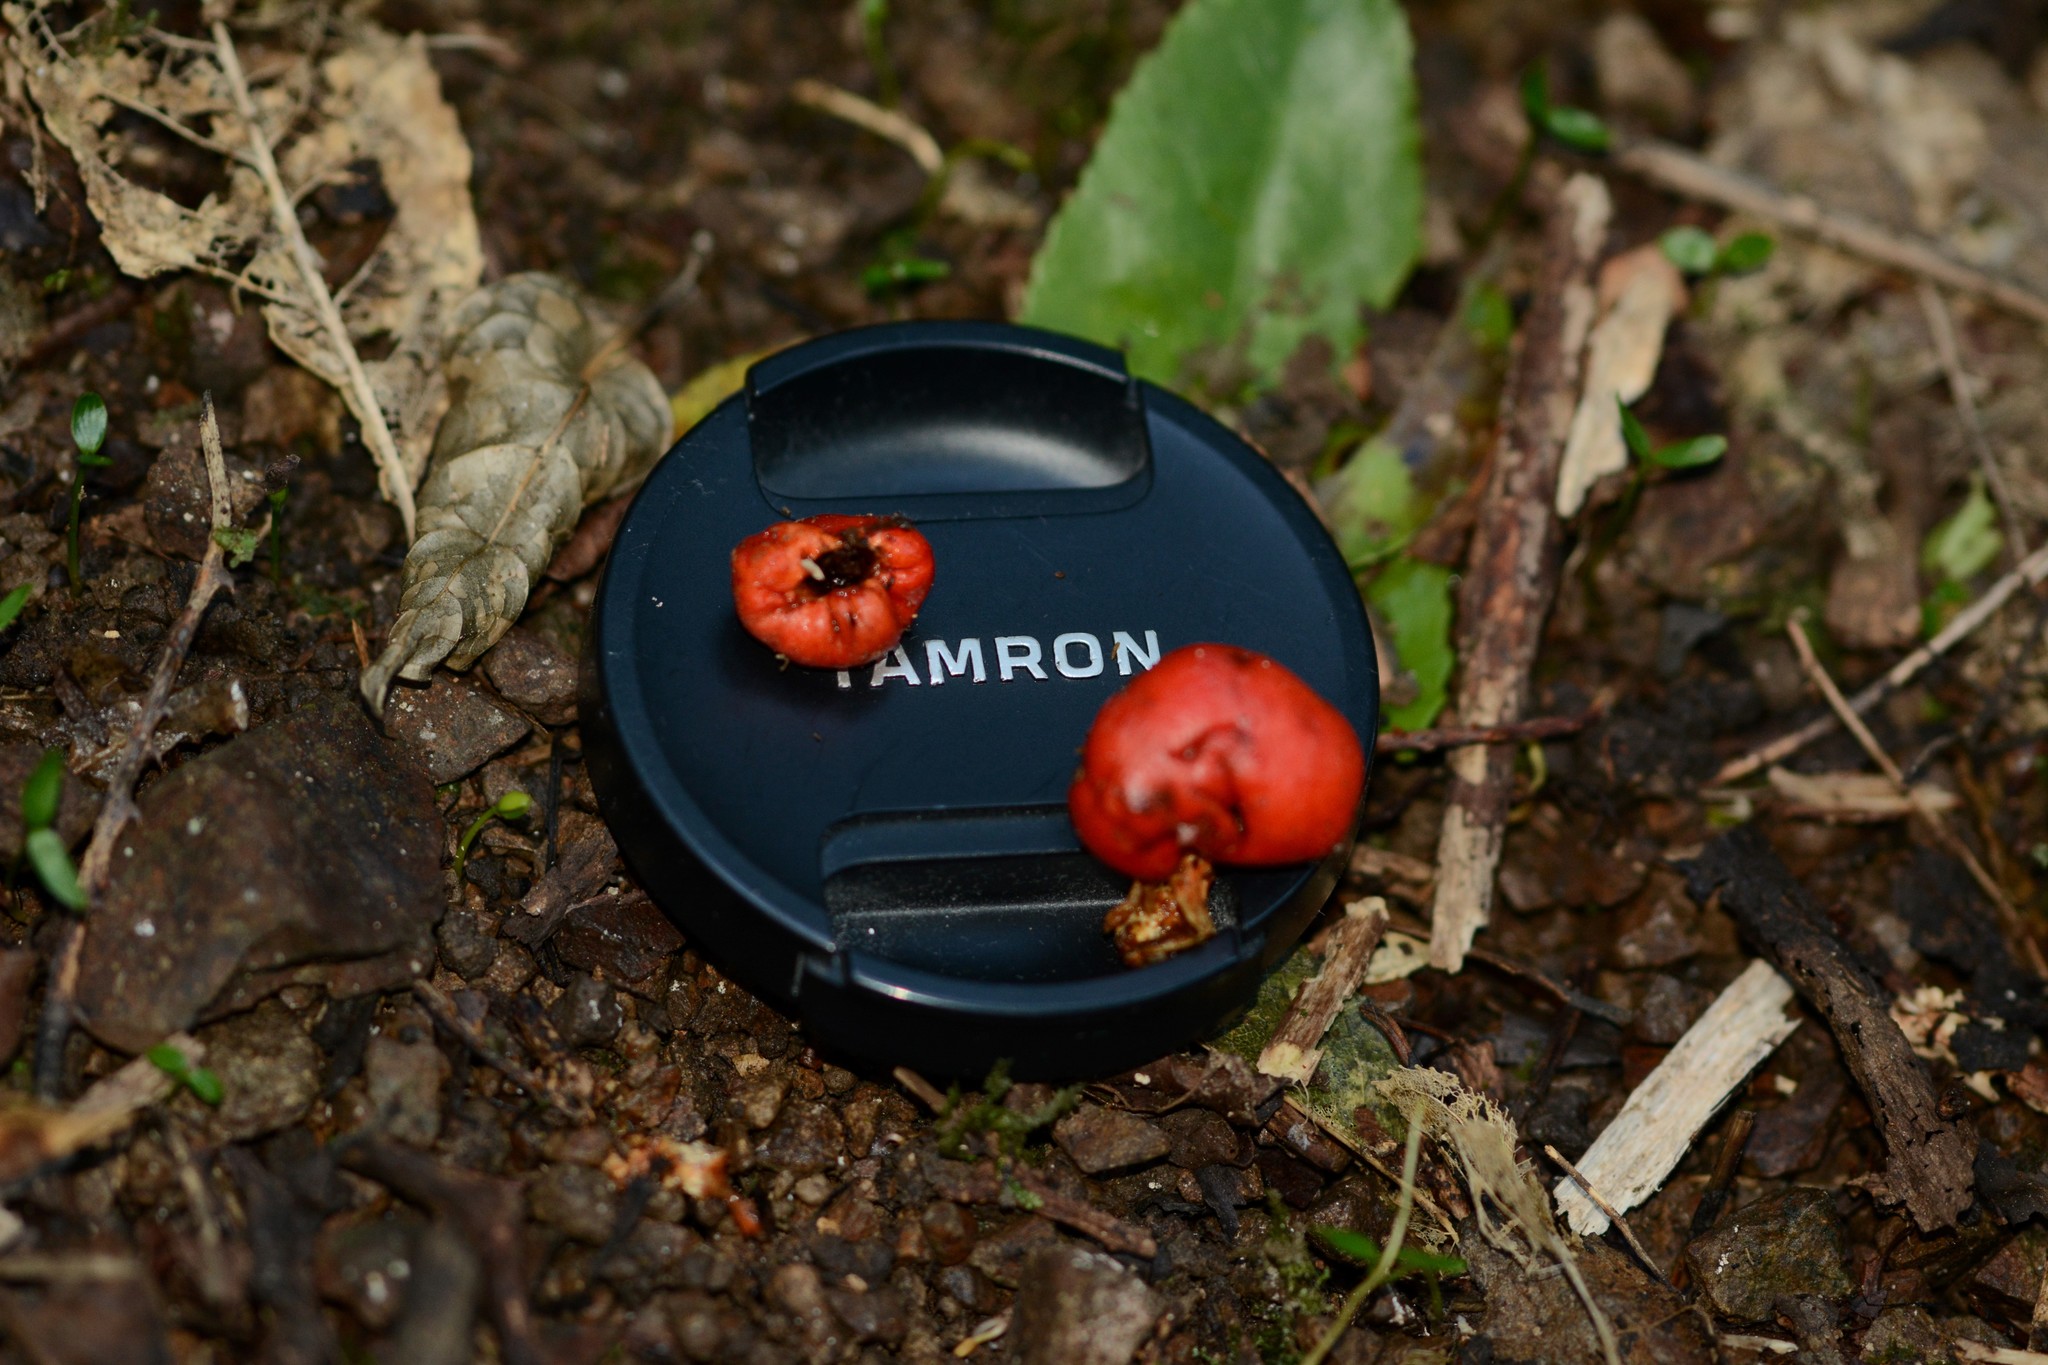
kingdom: Fungi
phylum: Basidiomycota
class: Agaricomycetes
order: Agaricales
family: Strophariaceae
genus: Leratiomyces
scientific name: Leratiomyces erythrocephalus
